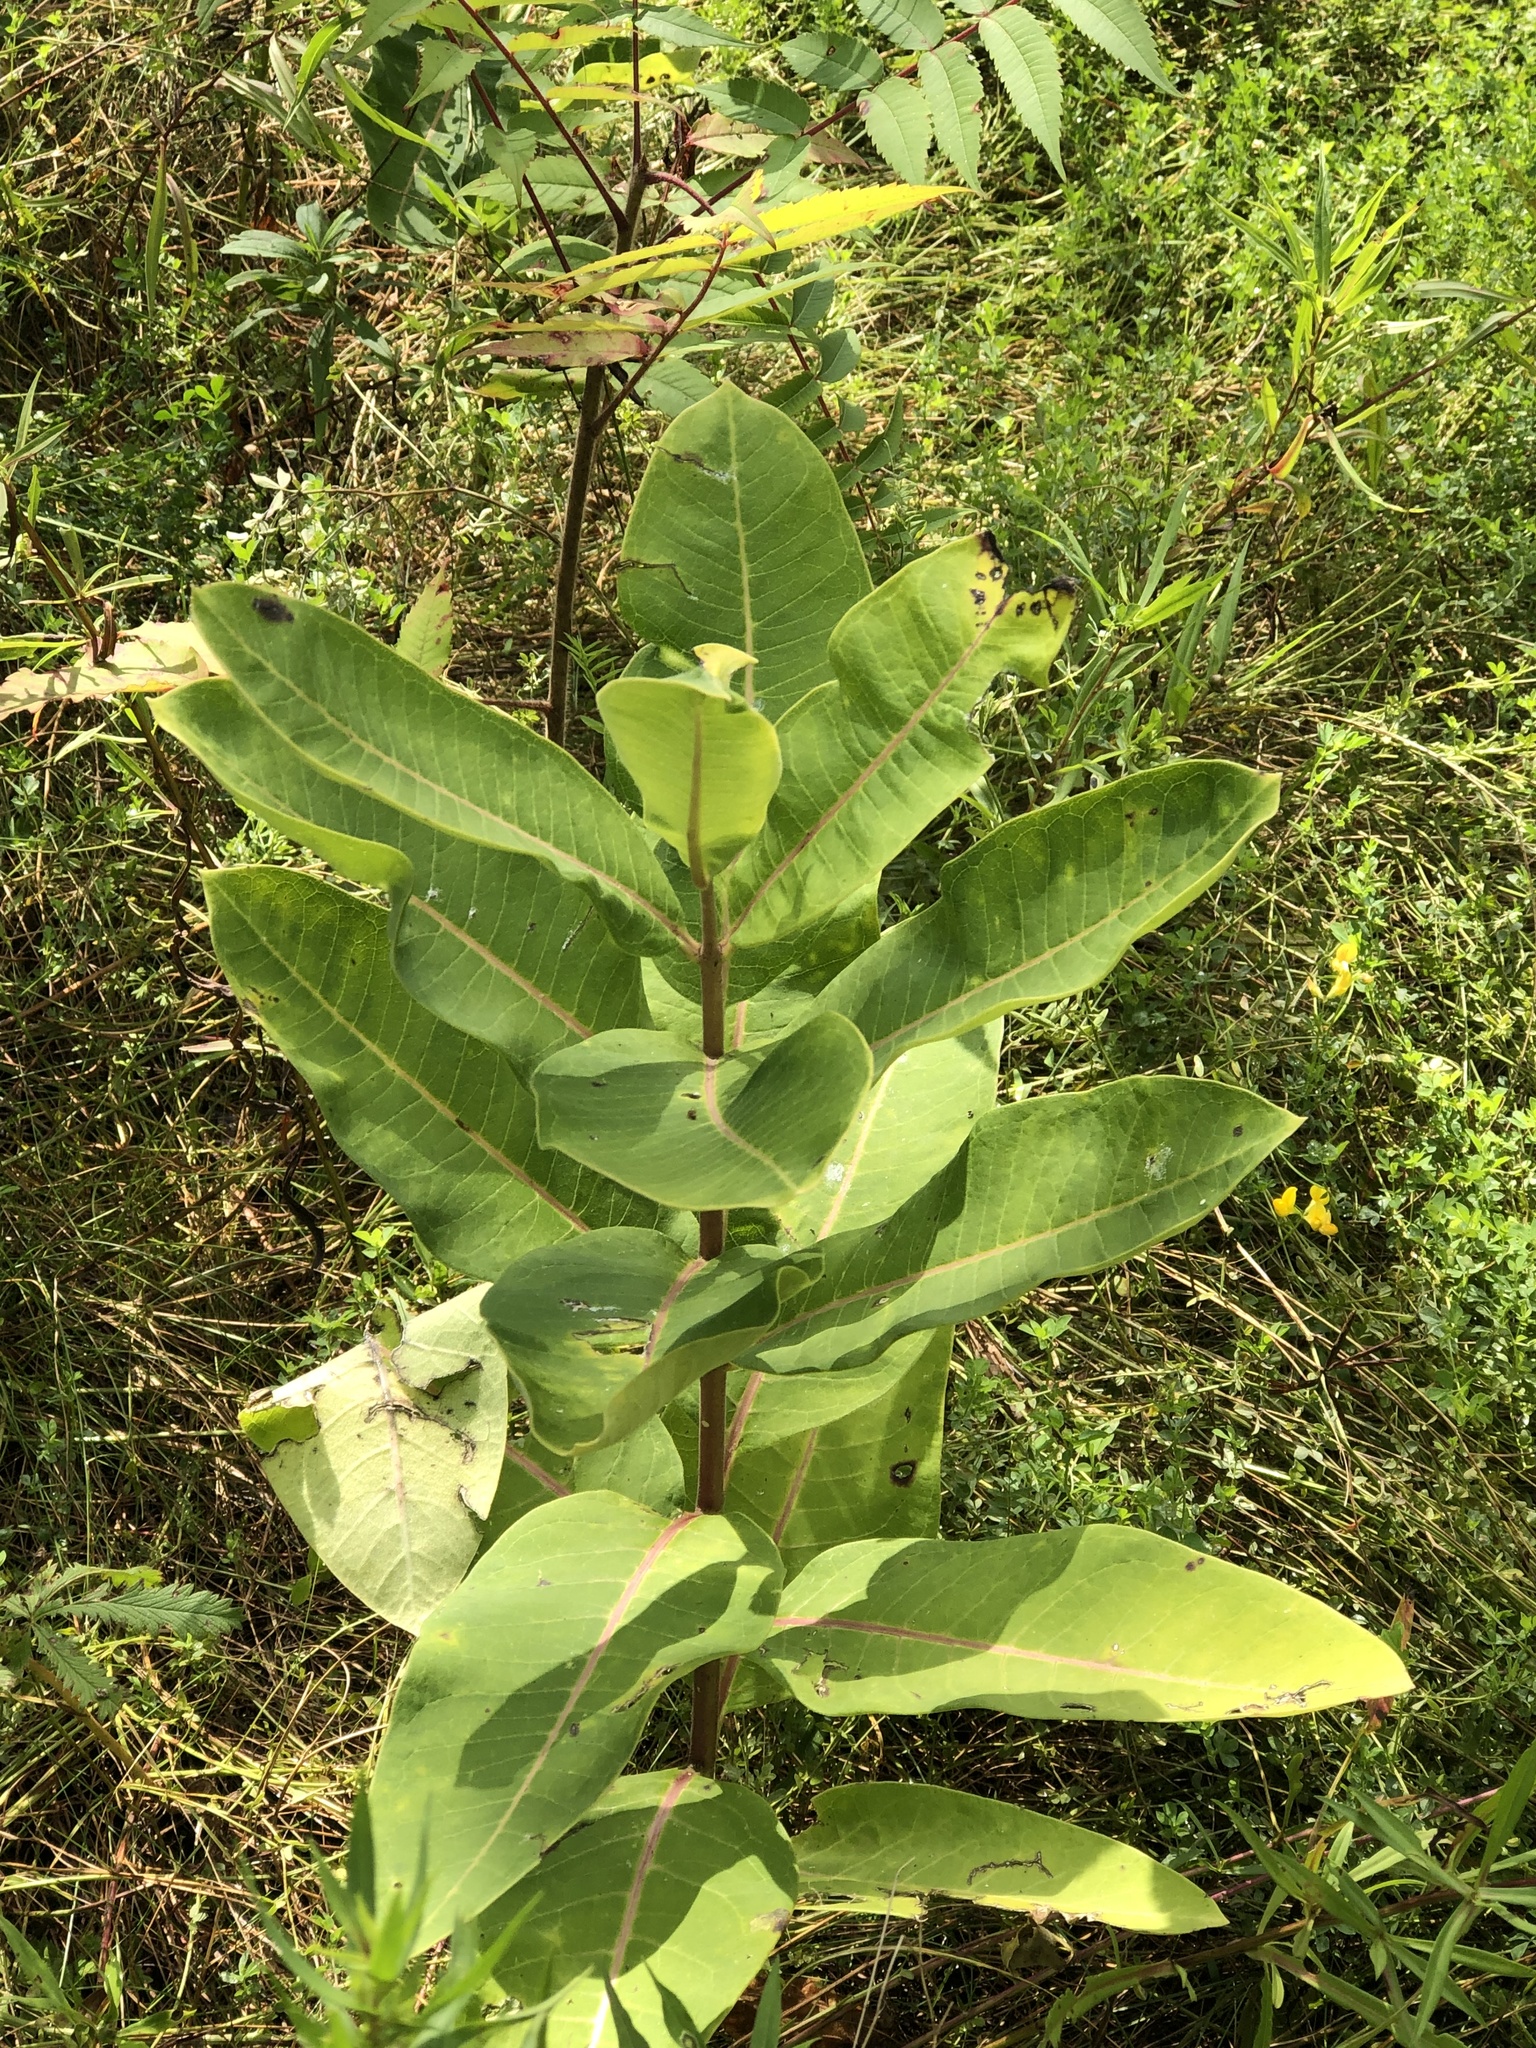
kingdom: Plantae
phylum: Tracheophyta
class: Magnoliopsida
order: Gentianales
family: Apocynaceae
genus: Asclepias
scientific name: Asclepias syriaca
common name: Common milkweed
